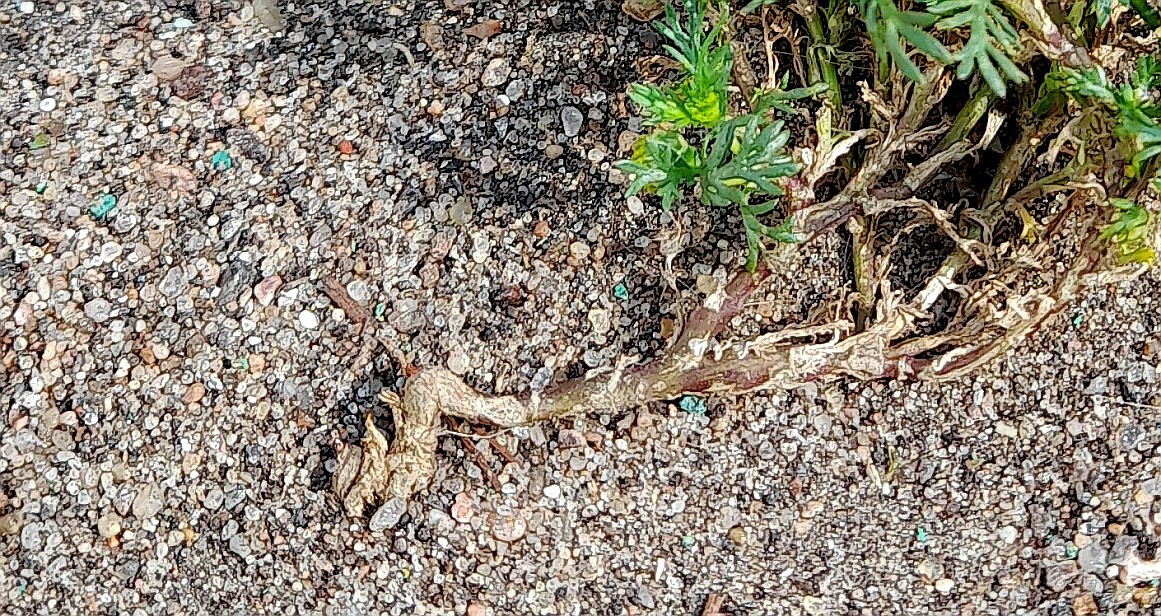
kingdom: Plantae
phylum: Tracheophyta
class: Magnoliopsida
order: Asterales
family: Asteraceae
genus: Matricaria
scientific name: Matricaria discoidea
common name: Disc mayweed
